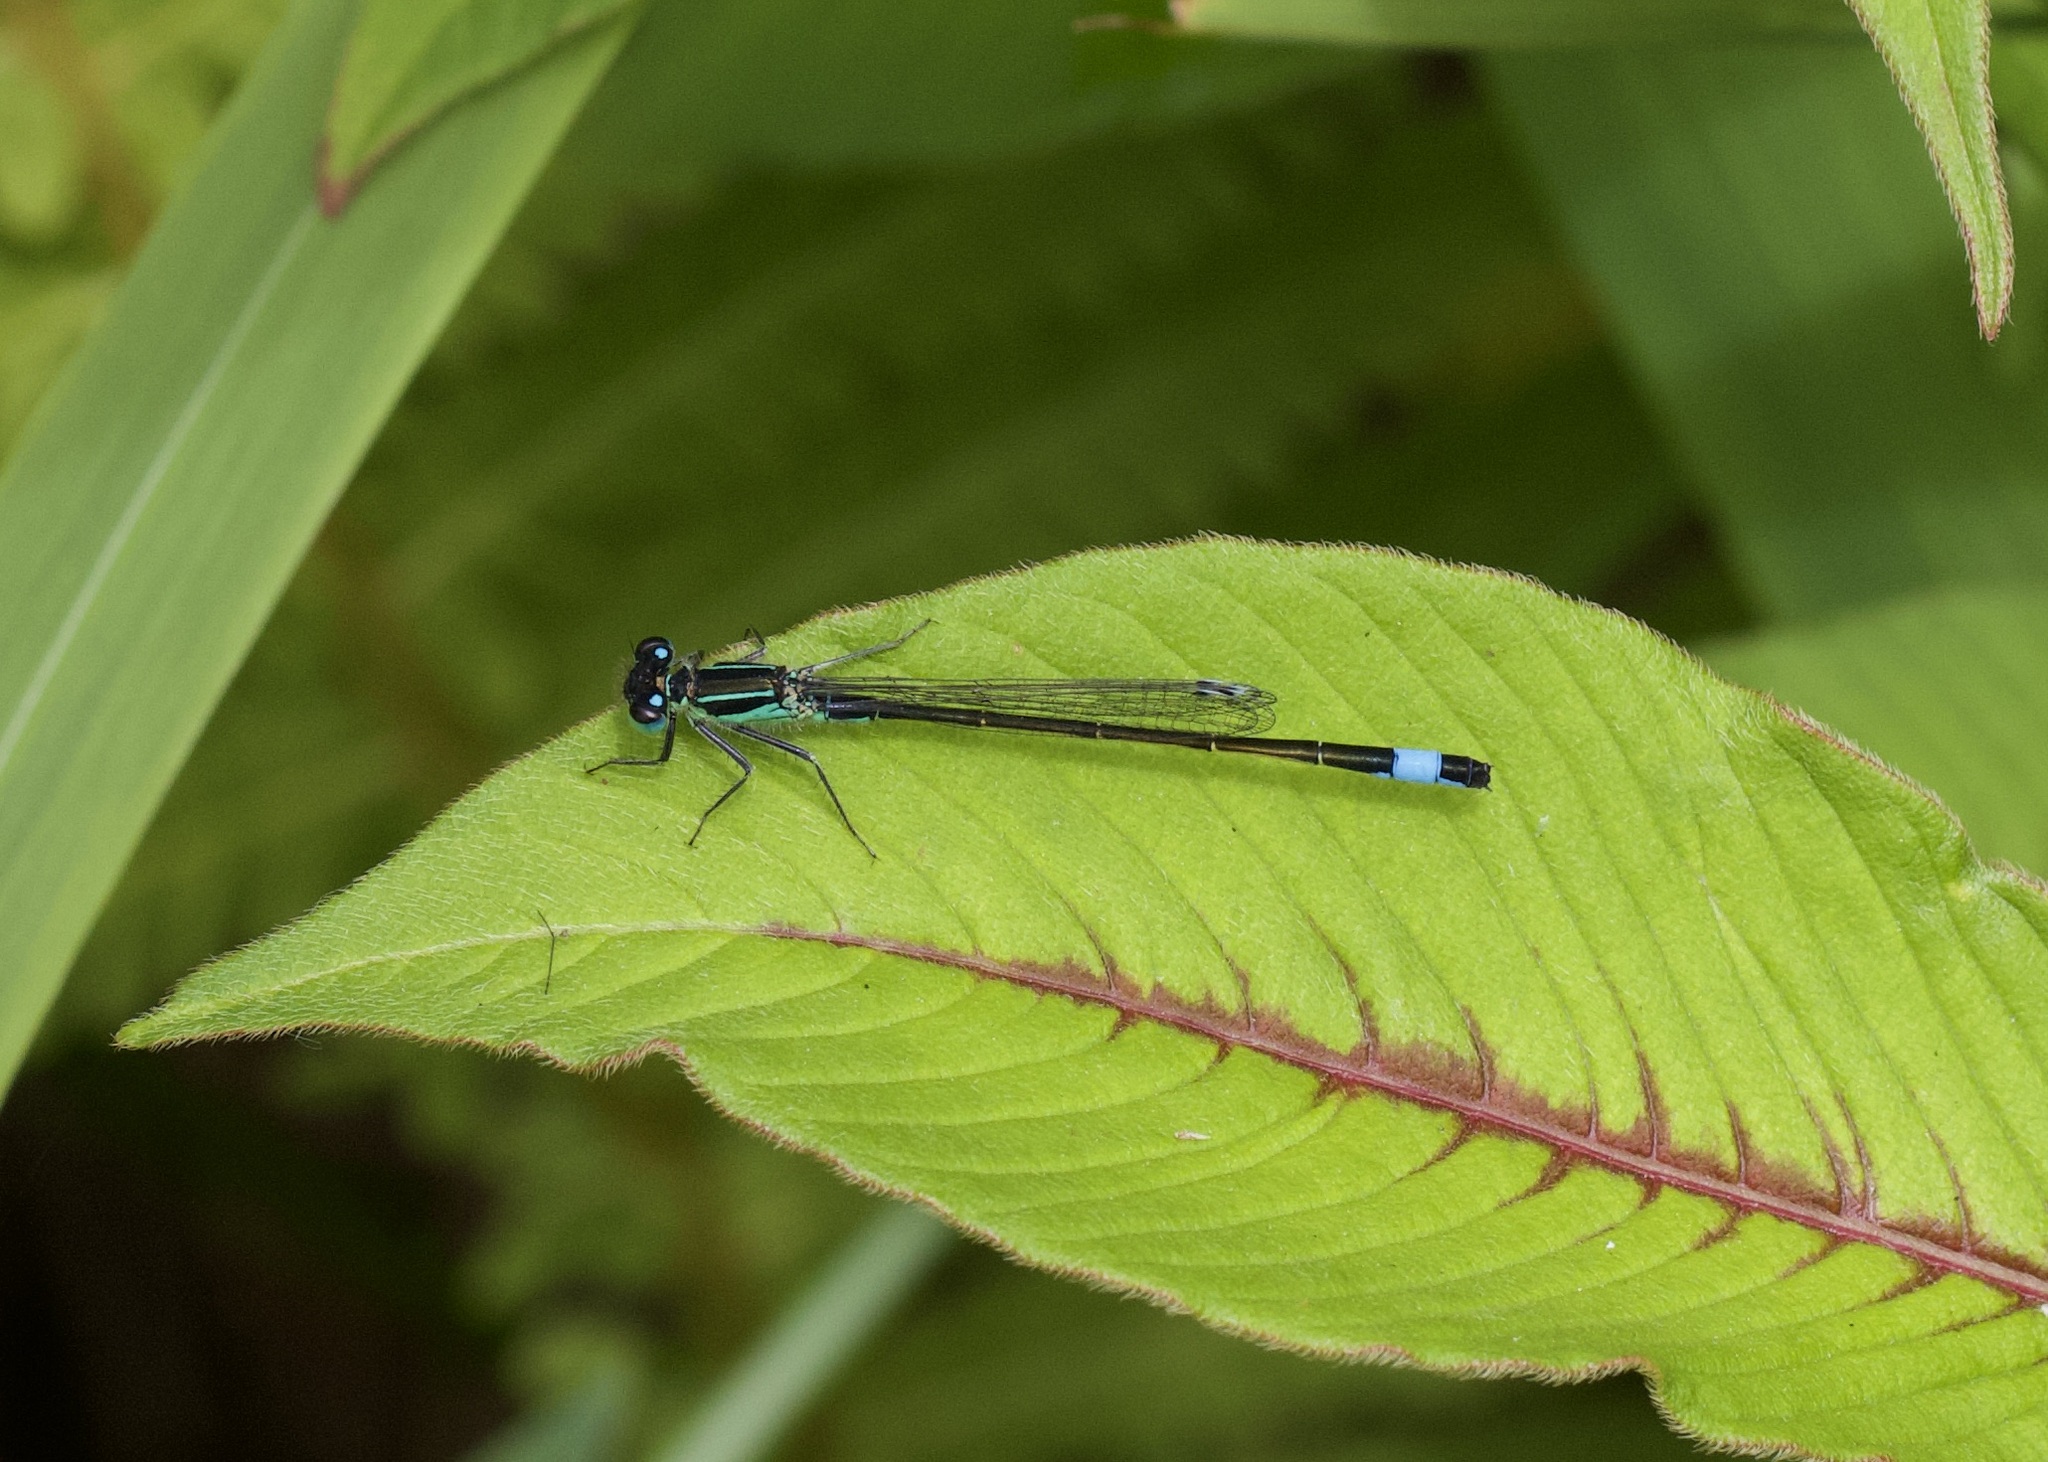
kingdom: Animalia
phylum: Arthropoda
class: Insecta
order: Odonata
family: Coenagrionidae
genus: Ischnura
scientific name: Ischnura elegans
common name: Blue-tailed damselfly
